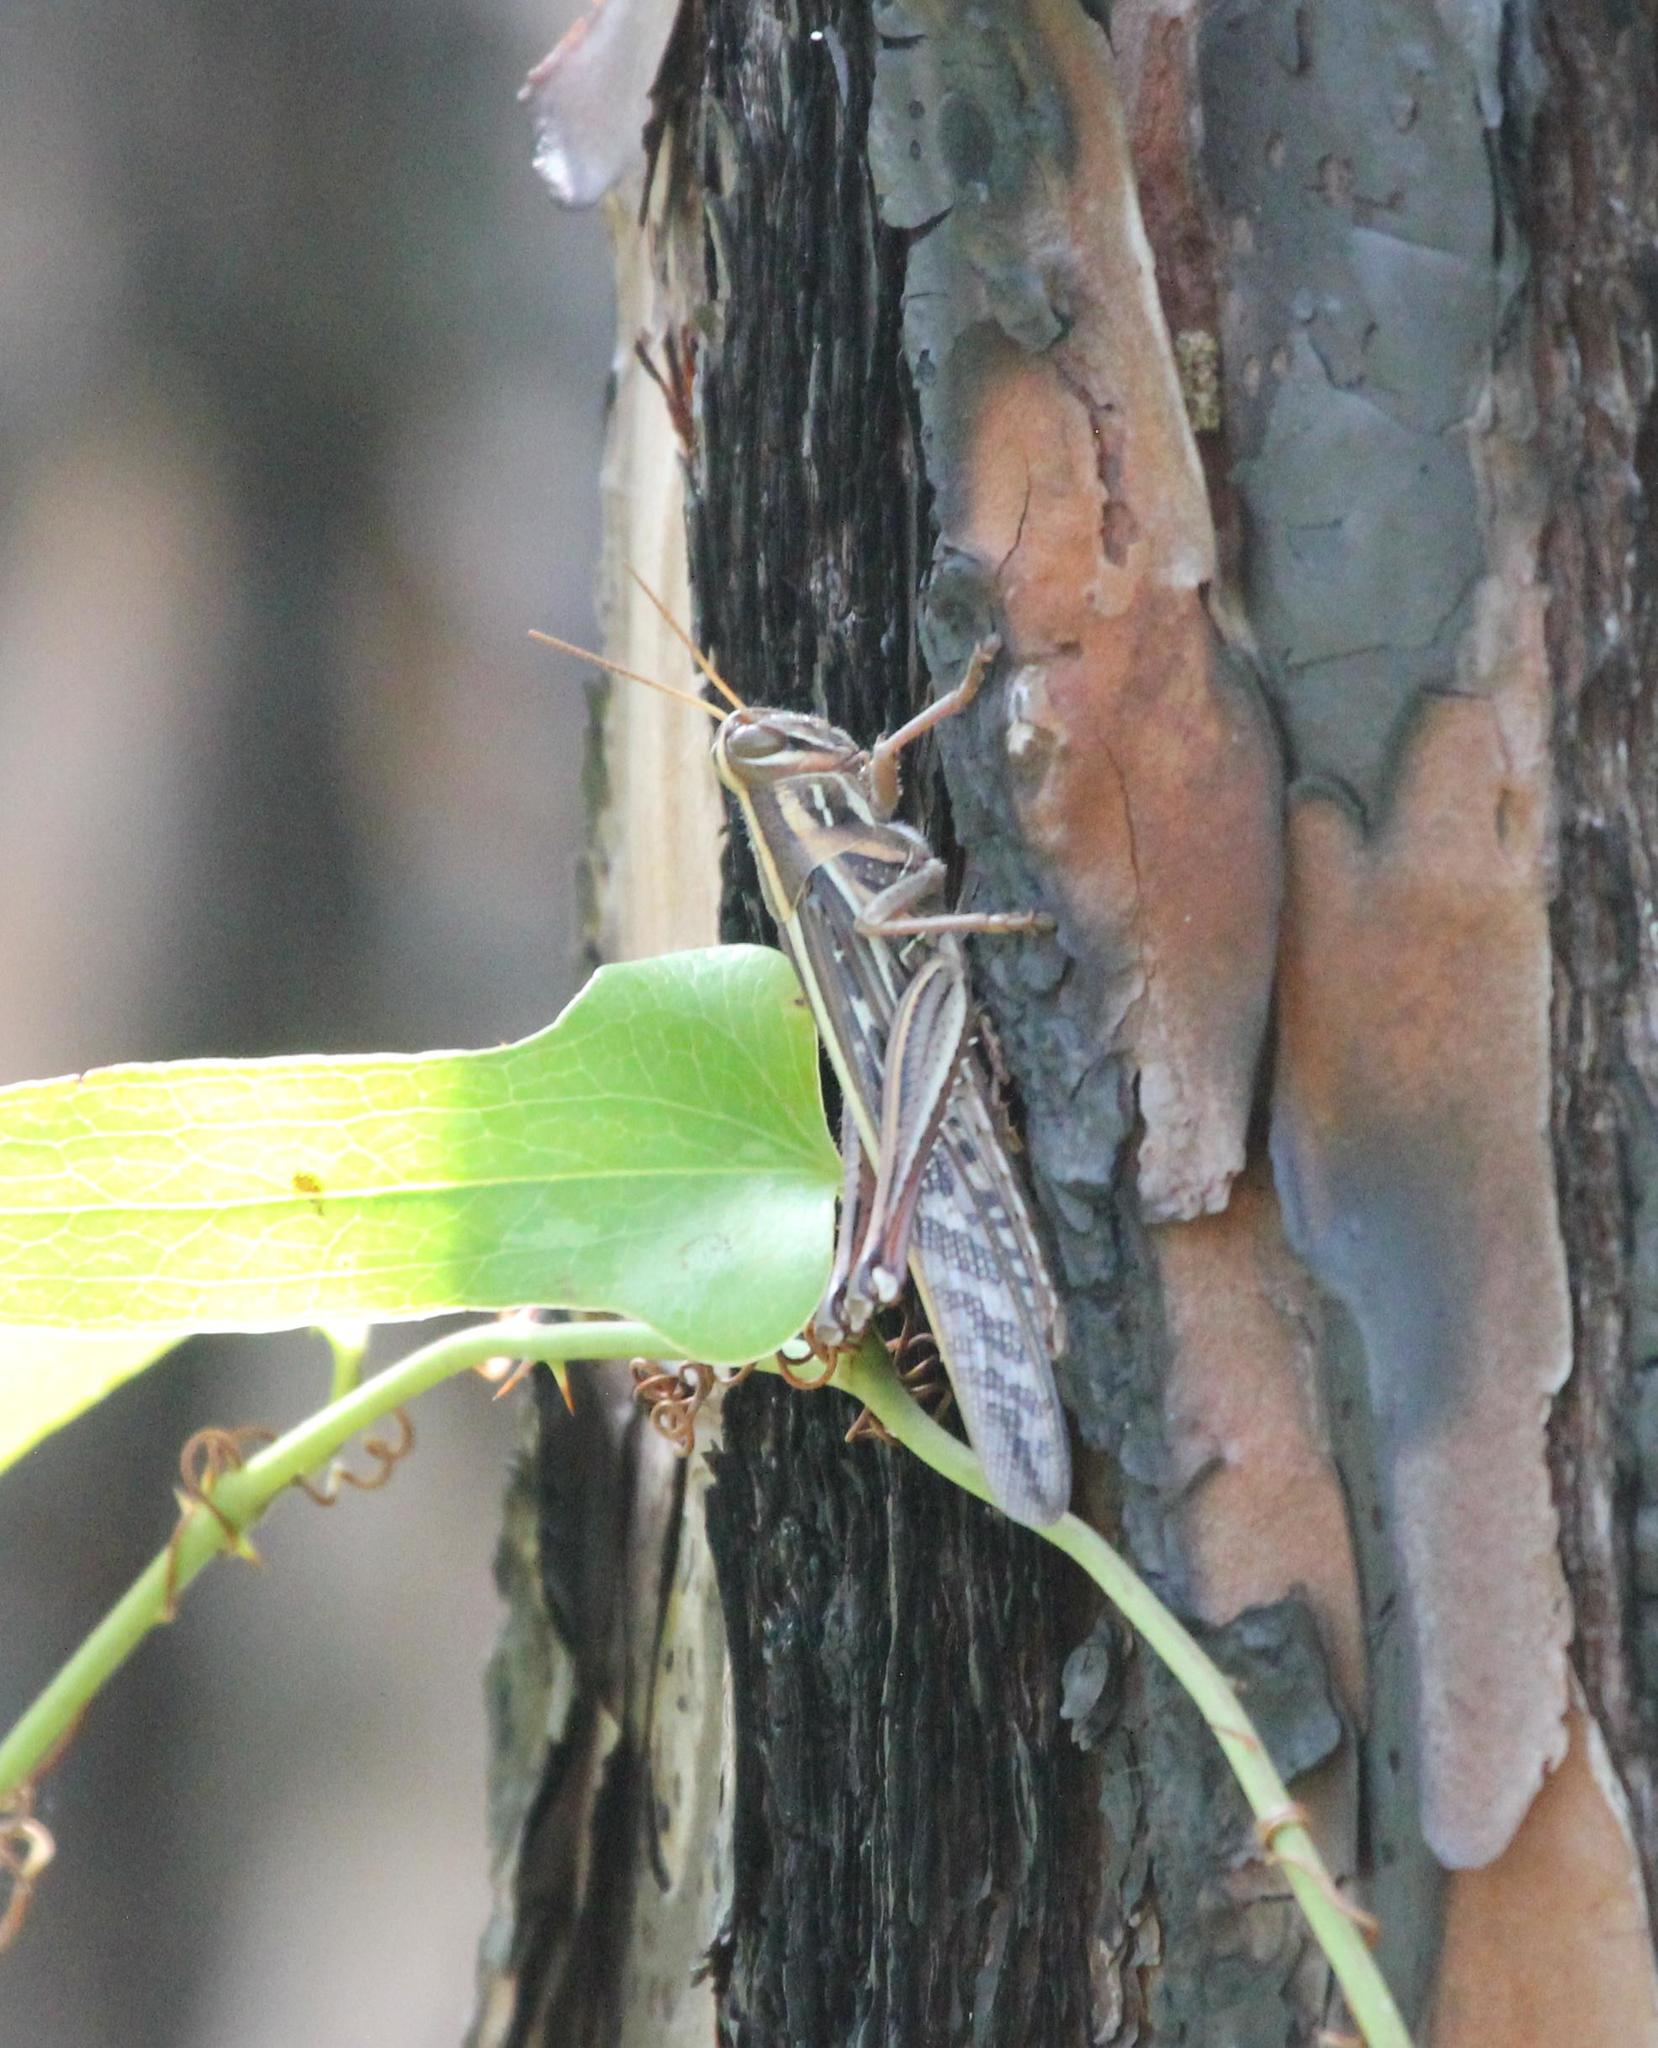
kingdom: Animalia
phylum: Arthropoda
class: Insecta
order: Orthoptera
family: Acrididae
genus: Schistocerca
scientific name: Schistocerca americana
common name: American bird locust
